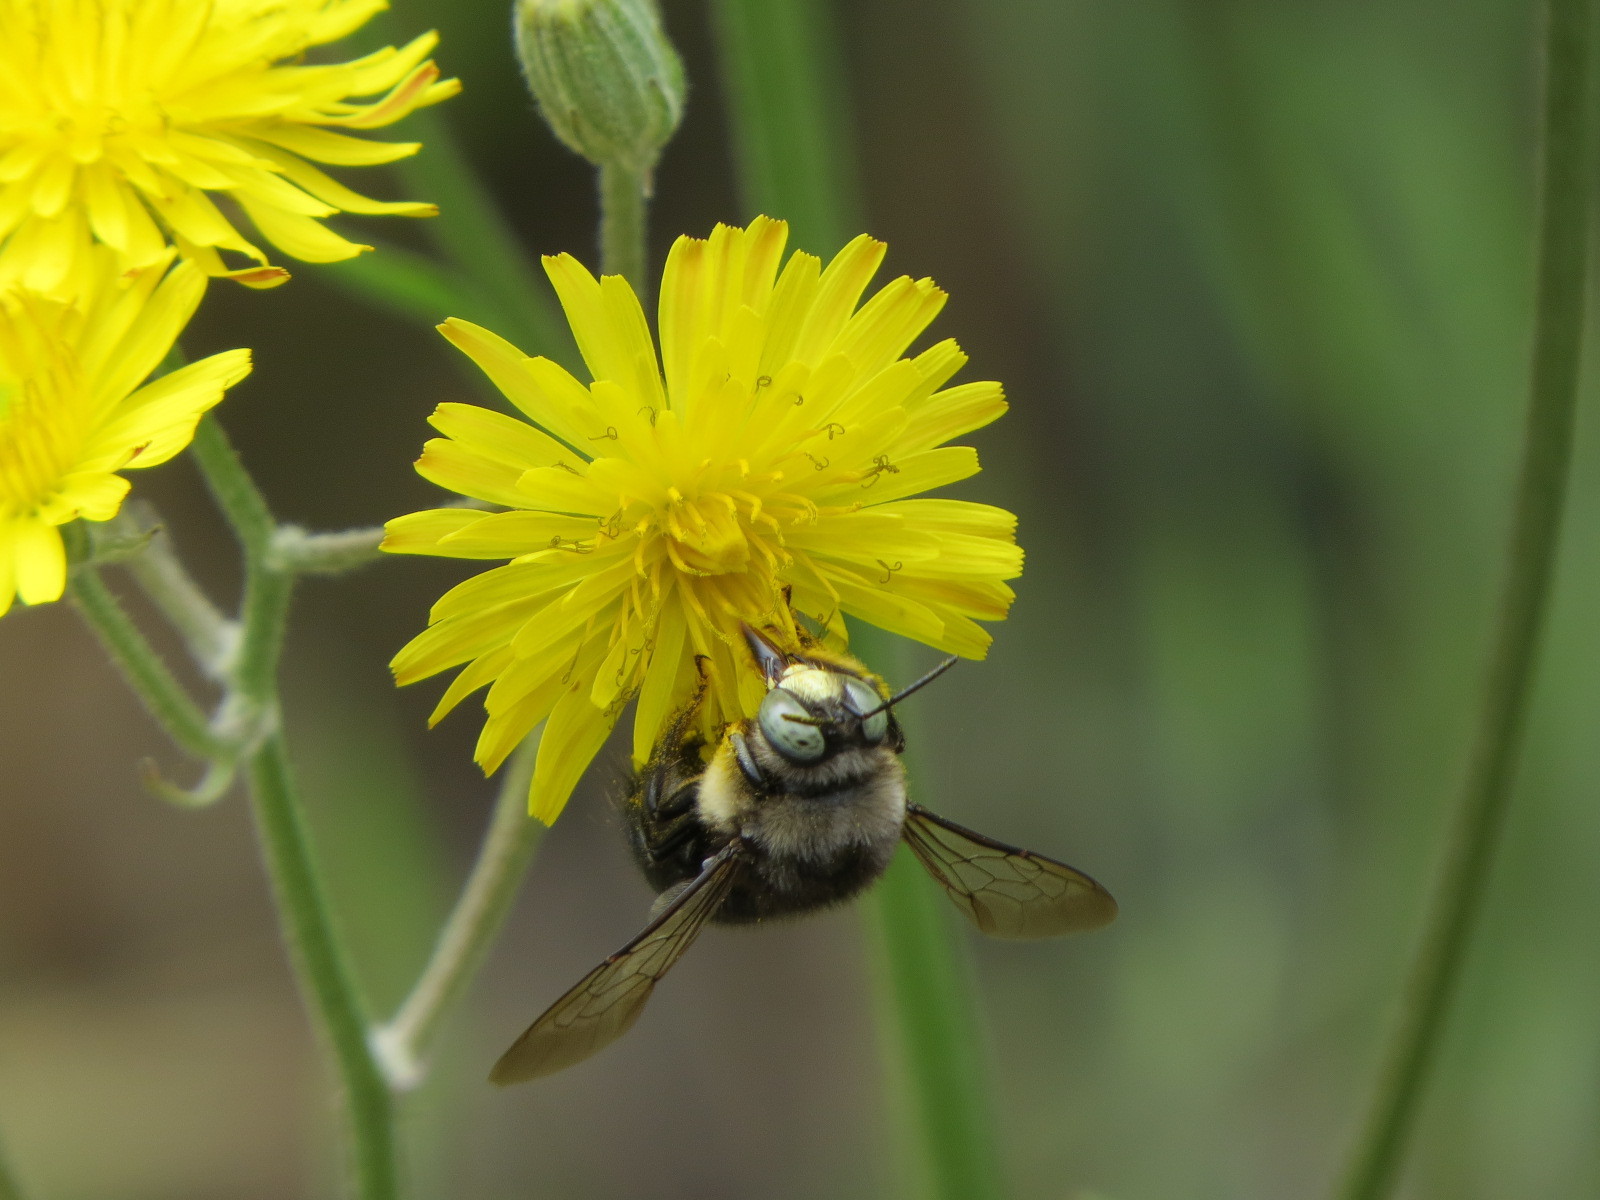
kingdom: Animalia
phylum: Arthropoda
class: Insecta
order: Hymenoptera
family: Apidae
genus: Xylocopa
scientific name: Xylocopa tabaniformis
